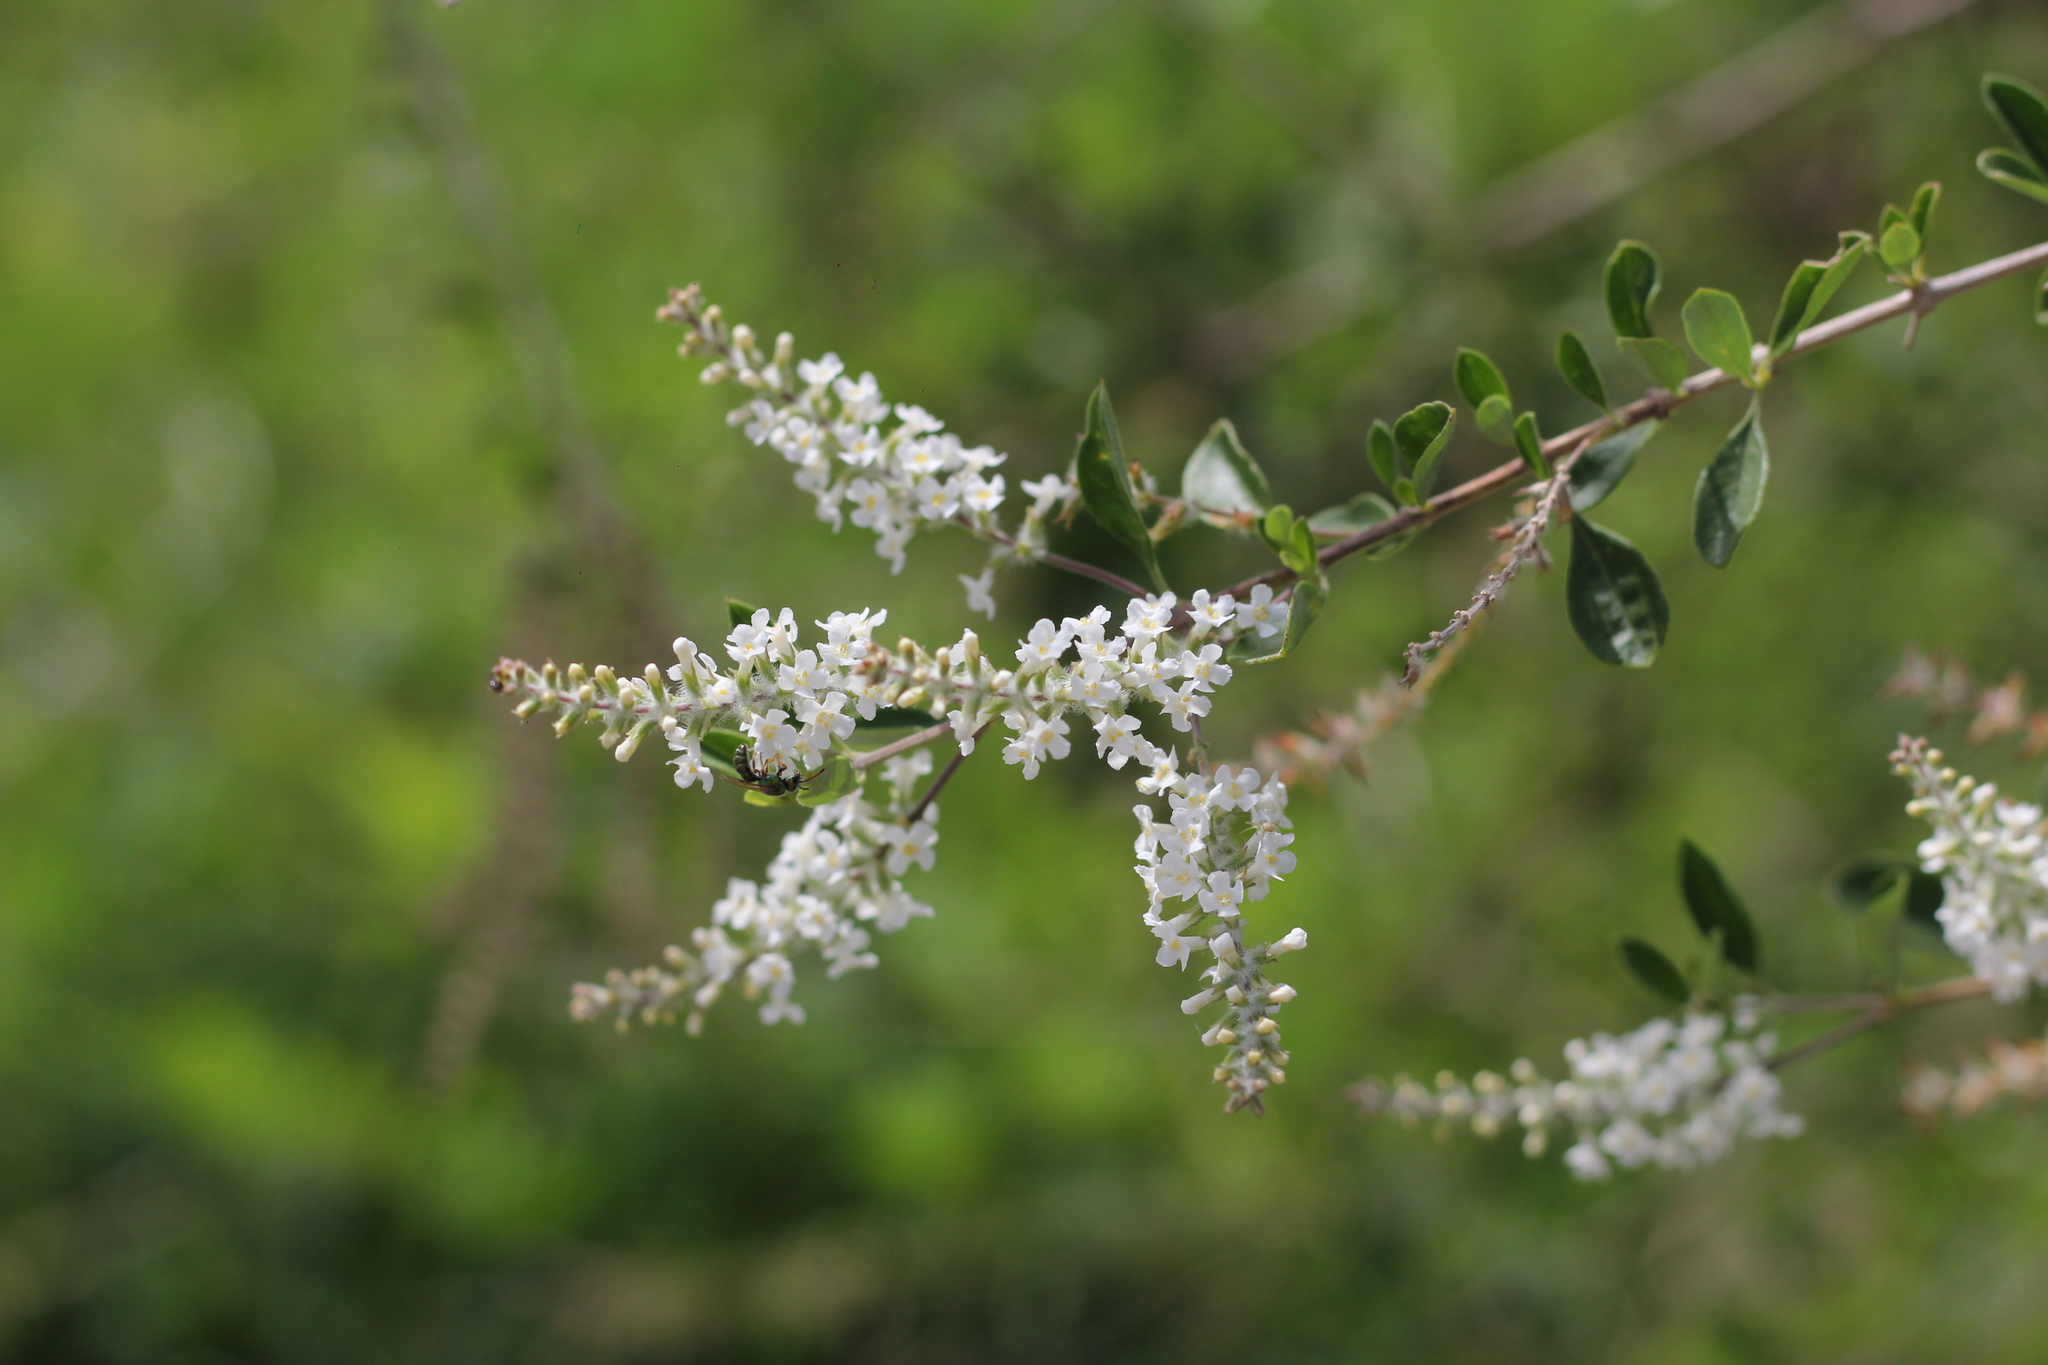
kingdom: Plantae
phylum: Tracheophyta
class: Magnoliopsida
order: Lamiales
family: Verbenaceae
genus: Aloysia
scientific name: Aloysia gratissima
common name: Common bee-brush
